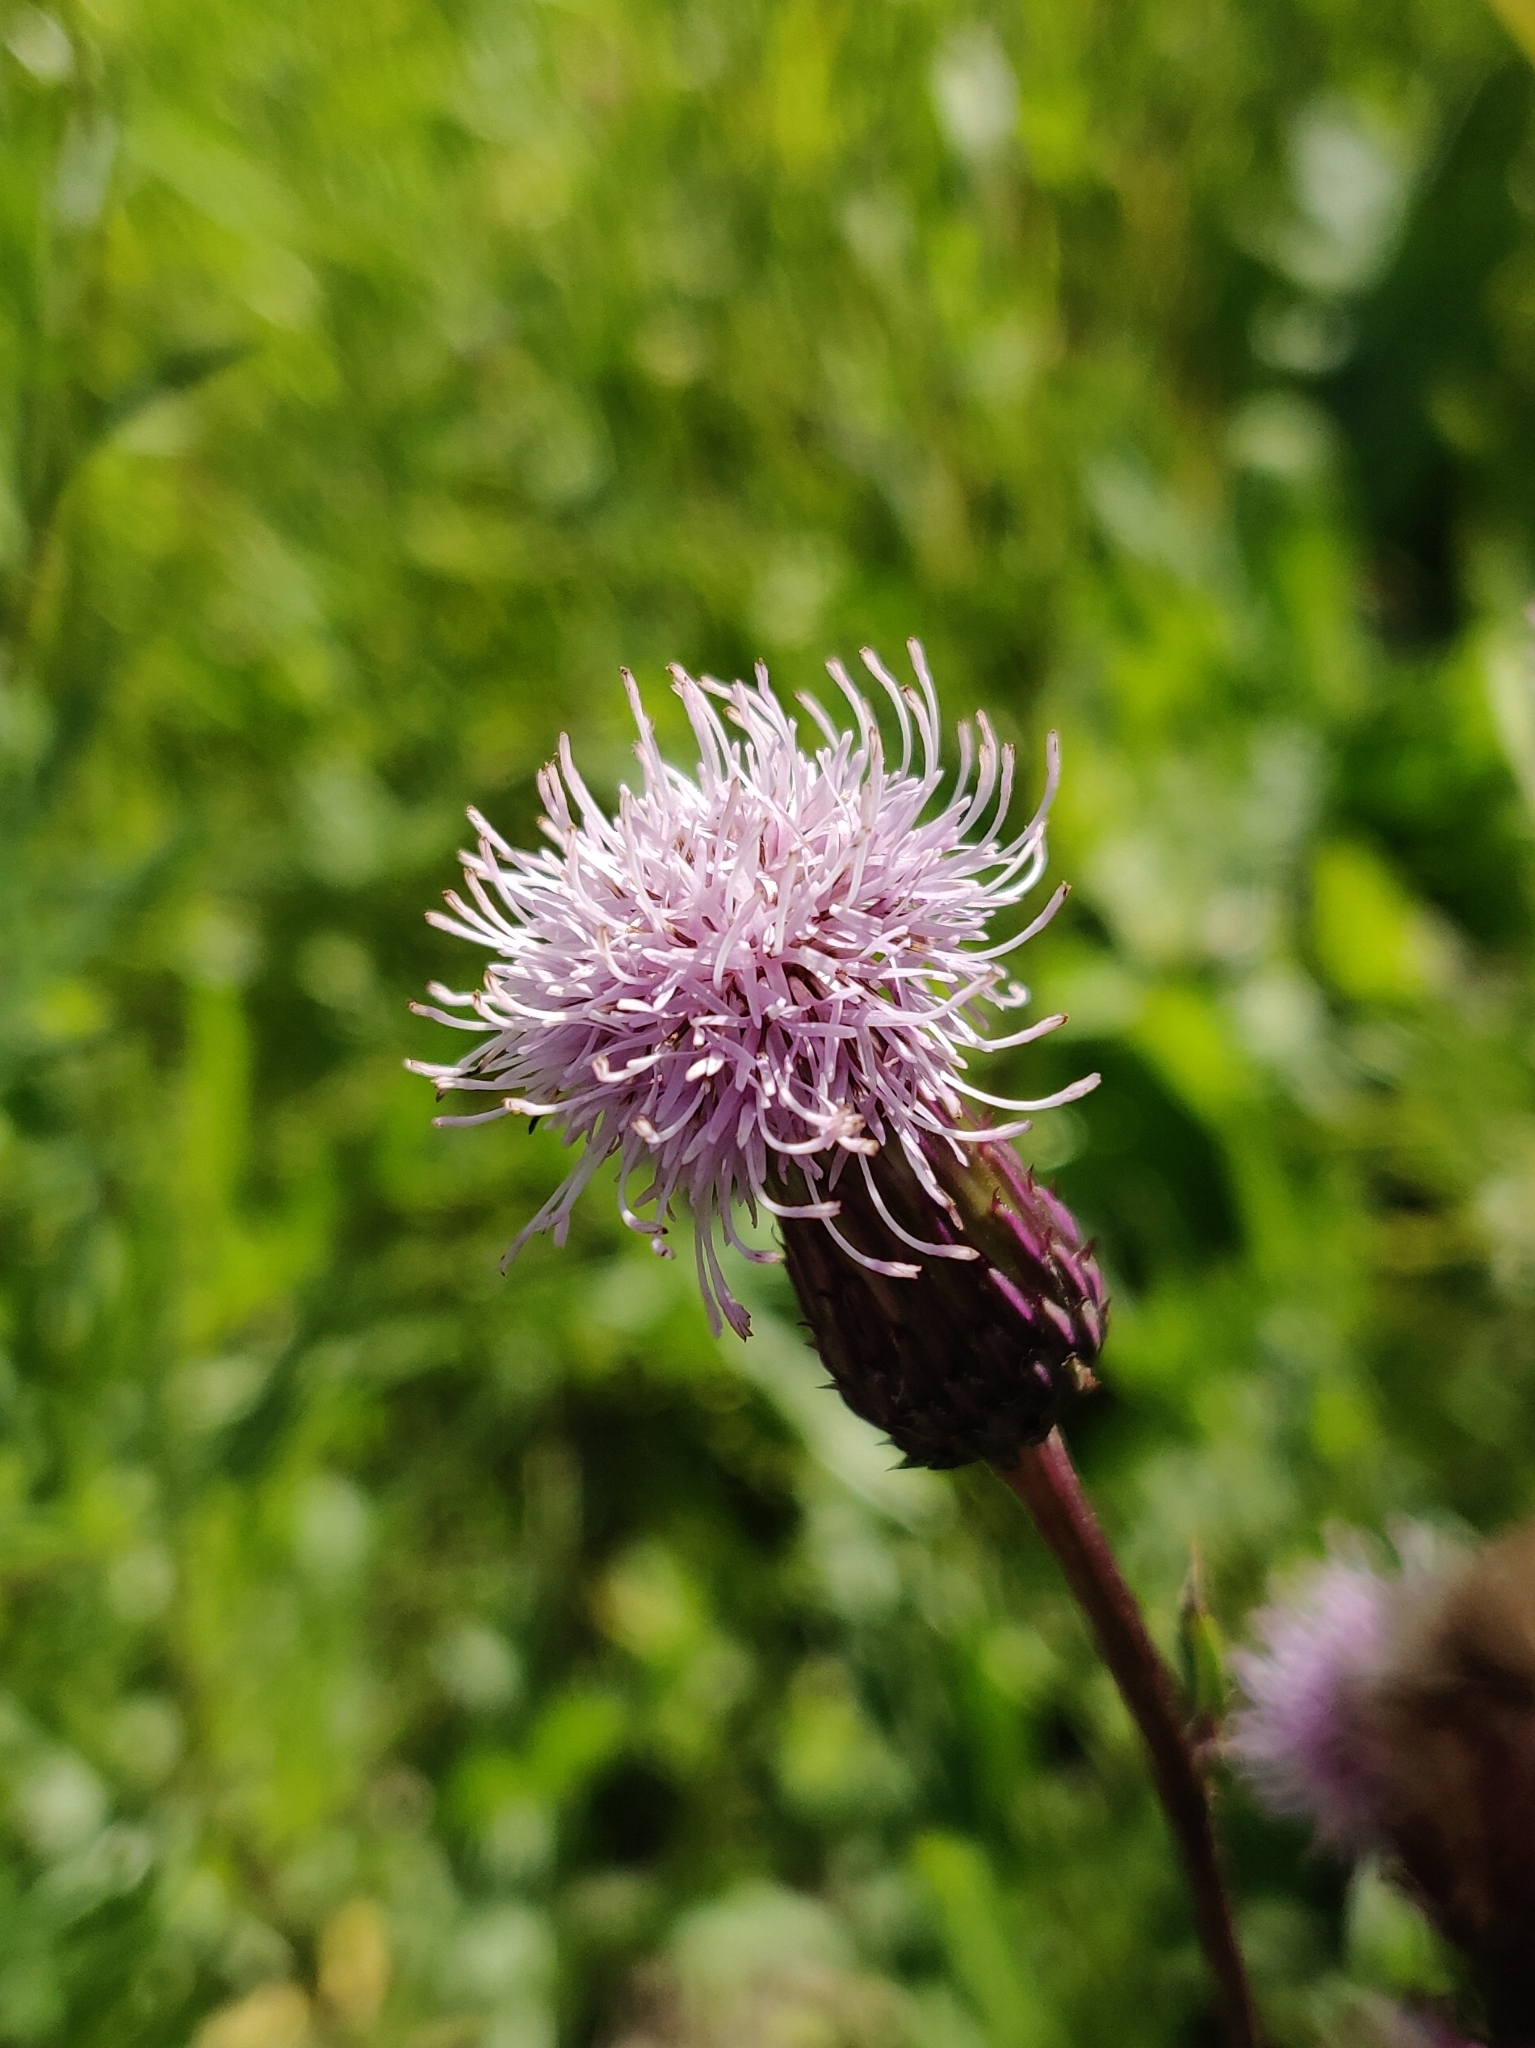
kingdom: Plantae
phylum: Tracheophyta
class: Magnoliopsida
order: Asterales
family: Asteraceae
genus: Cirsium
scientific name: Cirsium arvense
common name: Creeping thistle
